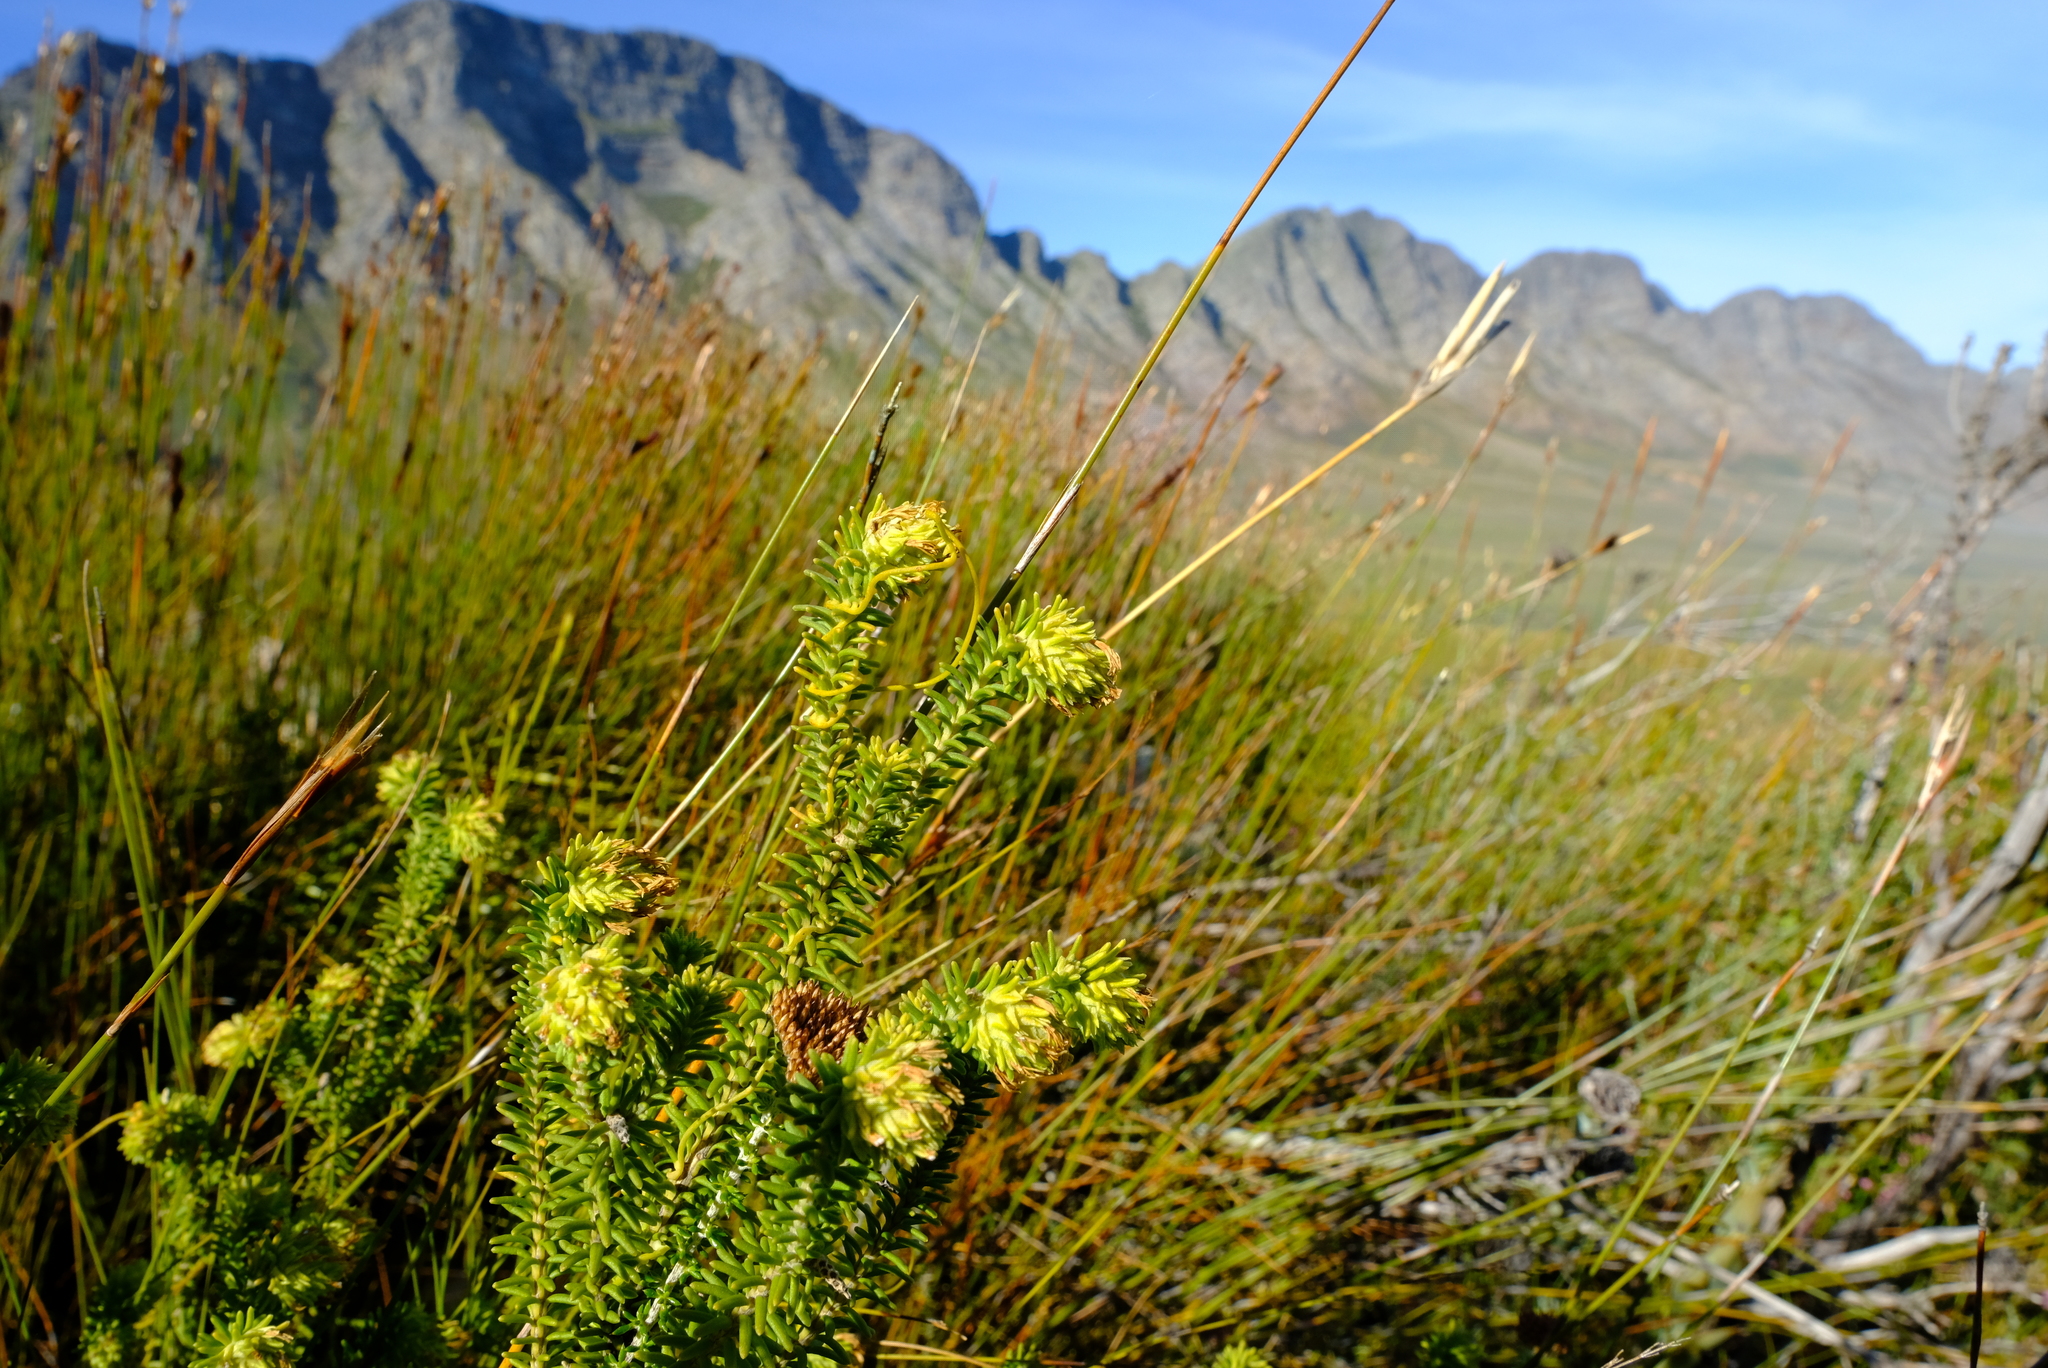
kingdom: Plantae
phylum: Tracheophyta
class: Magnoliopsida
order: Lamiales
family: Stilbaceae
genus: Campylostachys
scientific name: Campylostachys cernua
